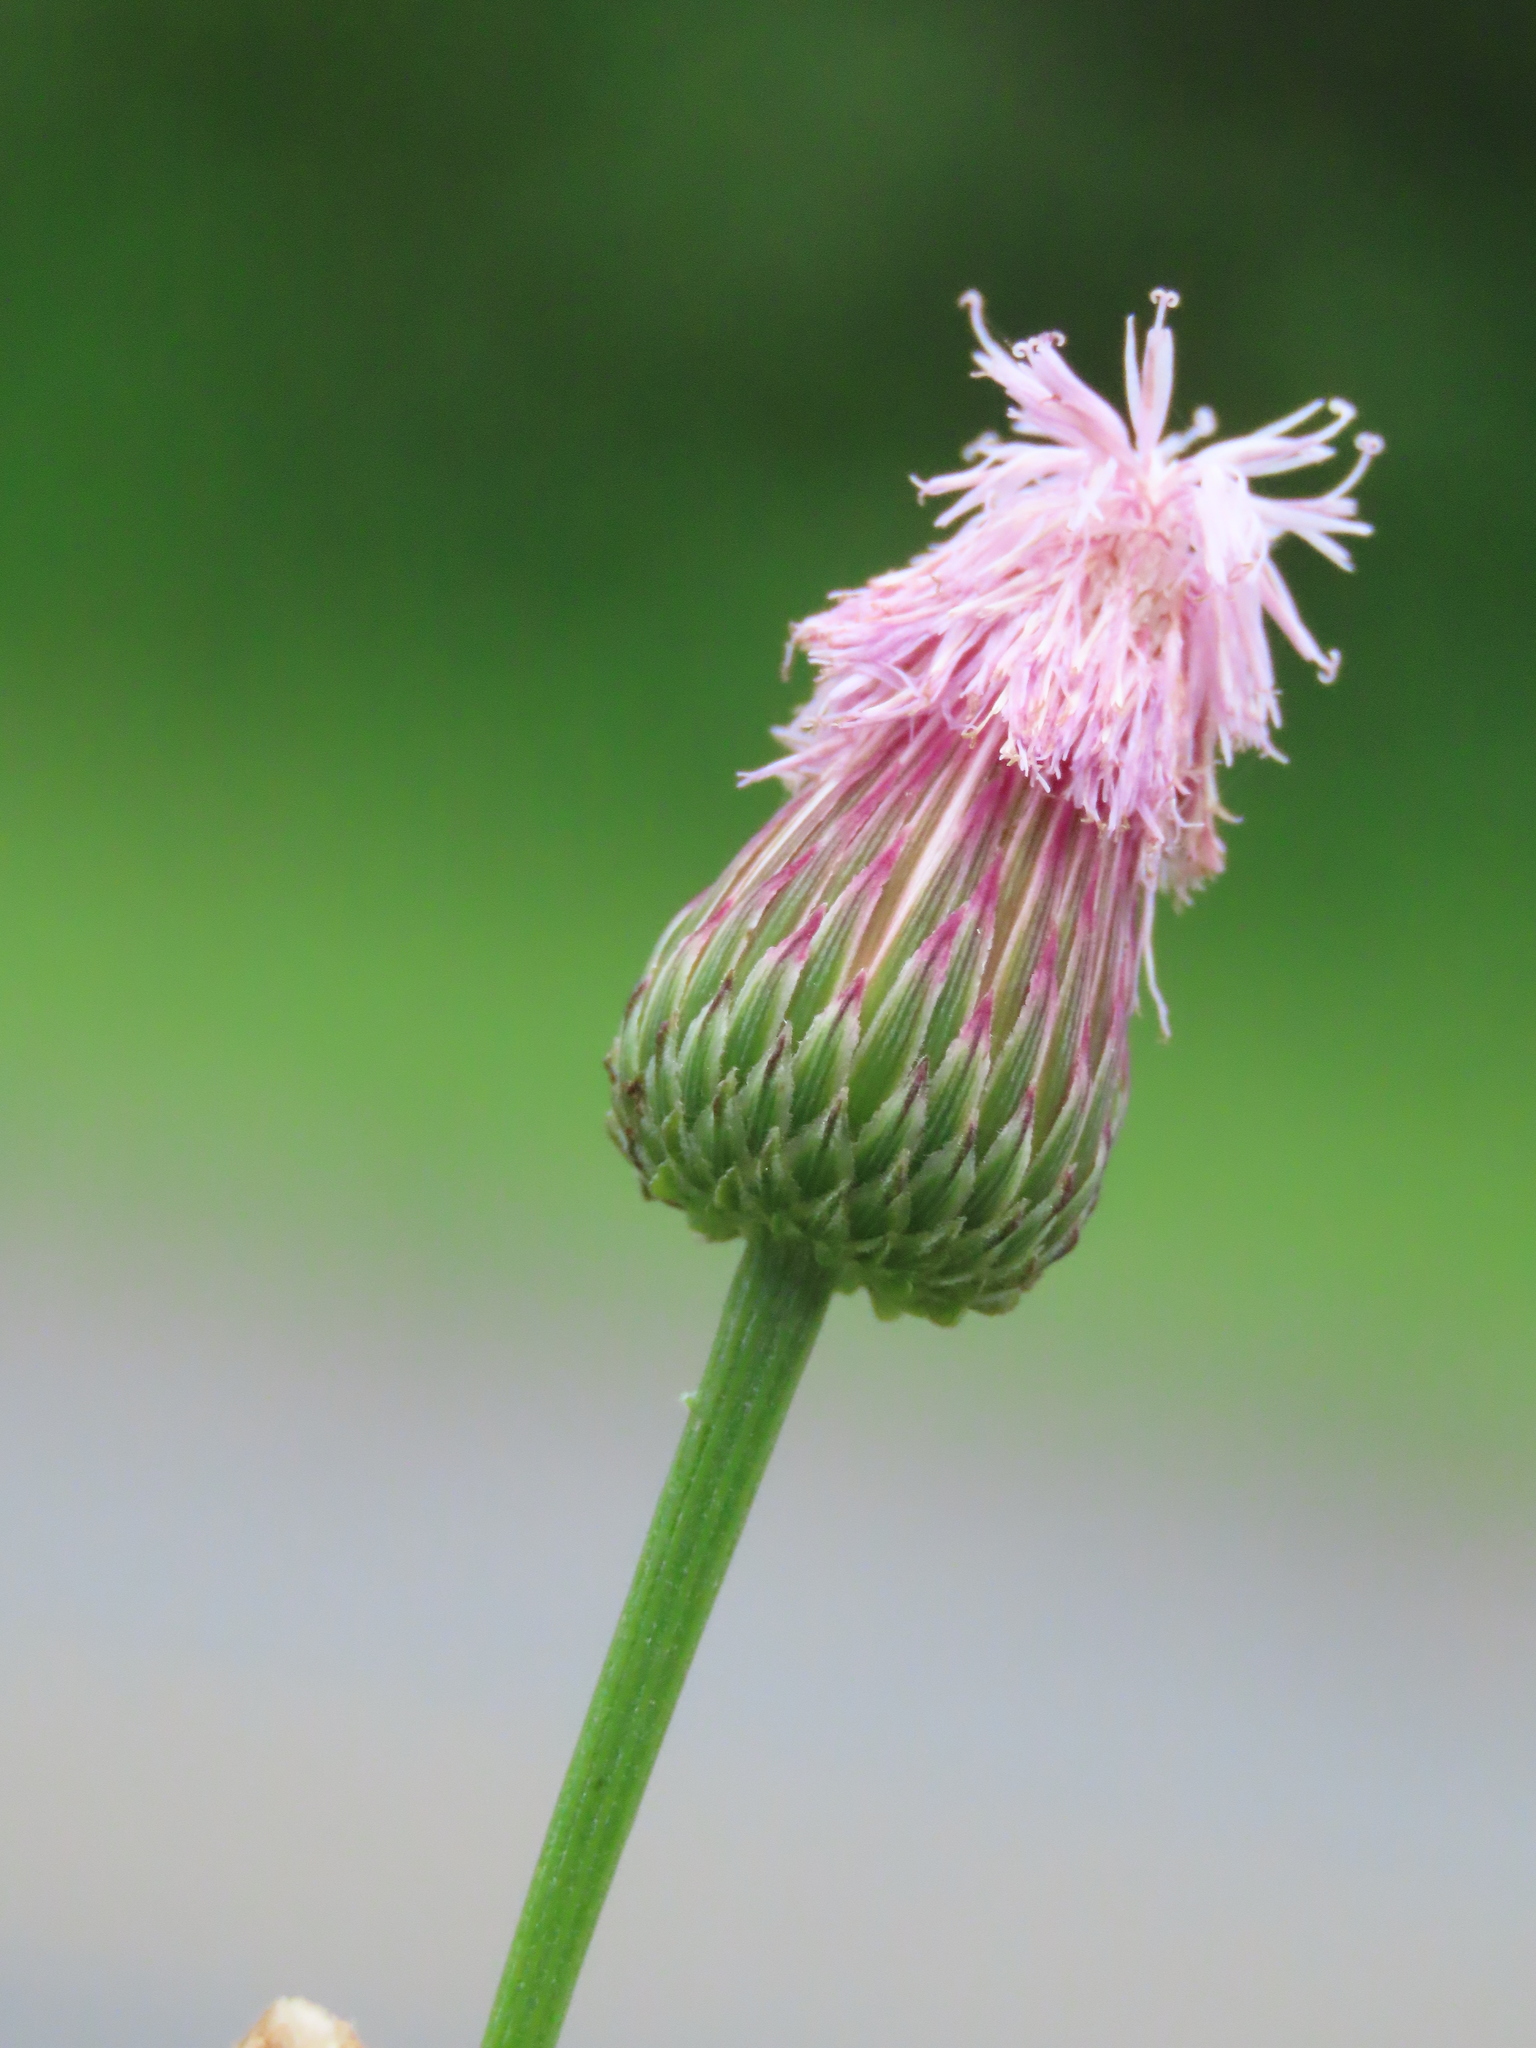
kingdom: Plantae
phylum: Tracheophyta
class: Magnoliopsida
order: Asterales
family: Asteraceae
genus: Saussurea
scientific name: Saussurea lyrata
